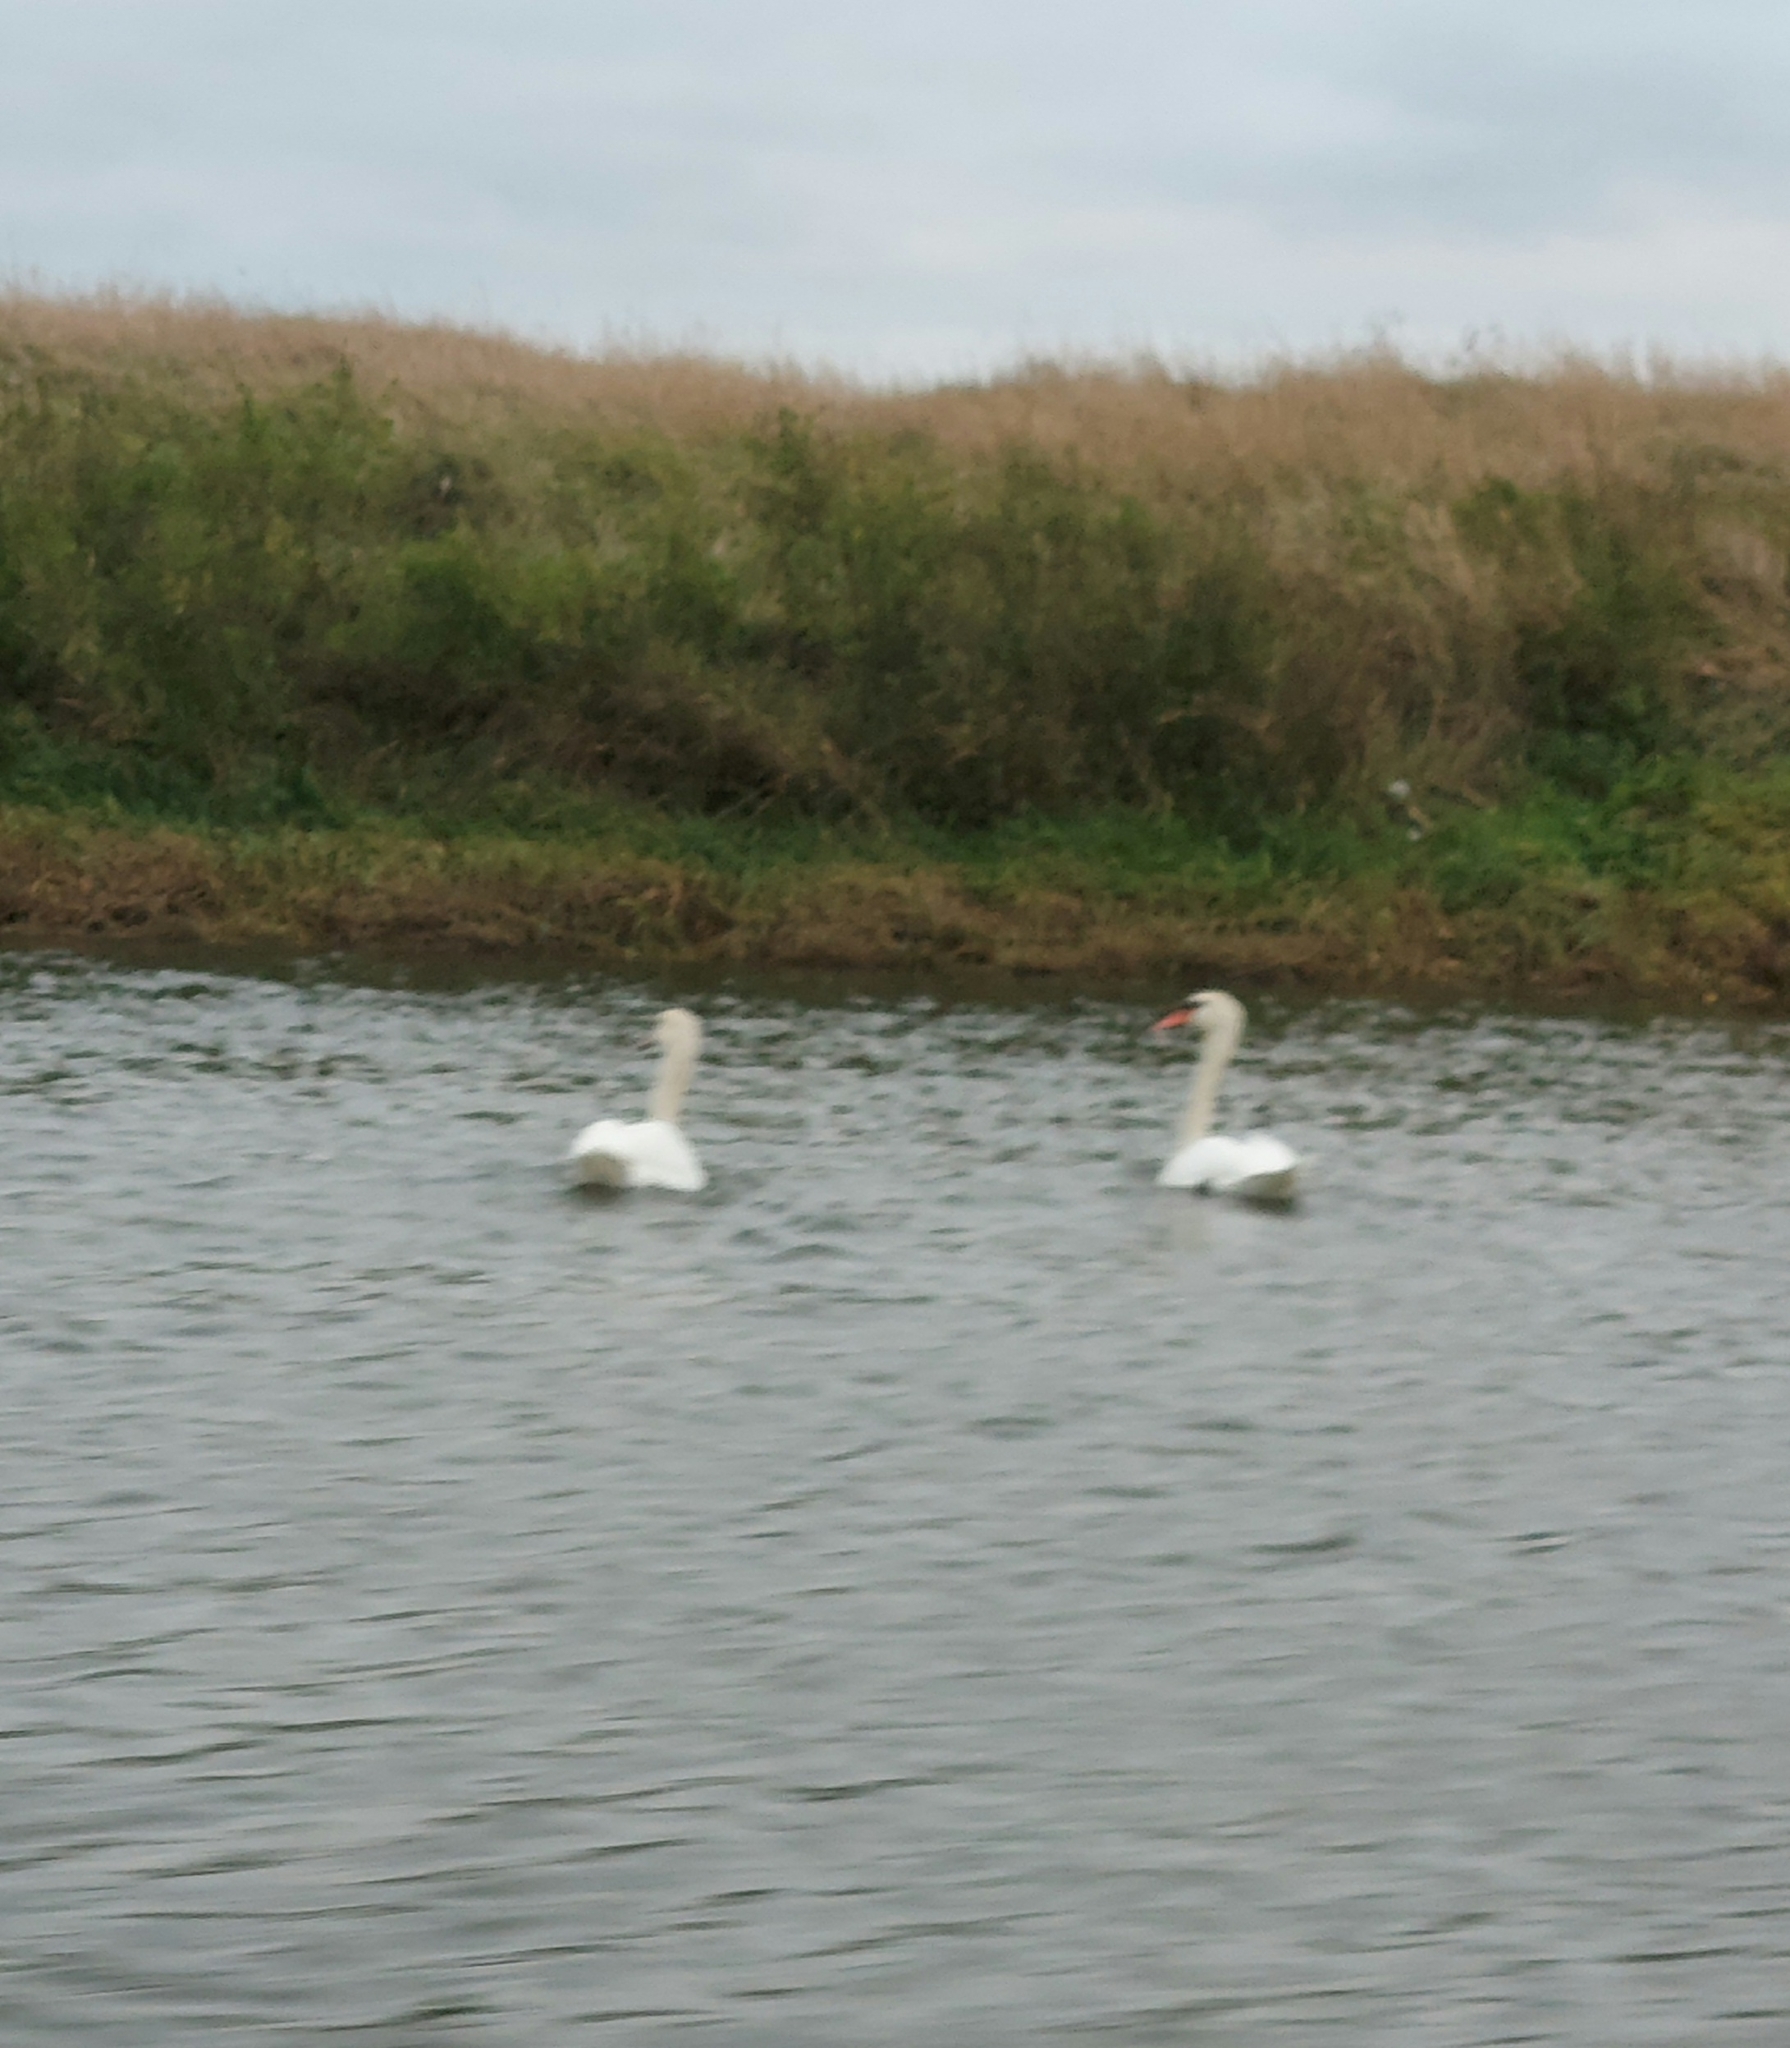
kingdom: Animalia
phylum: Chordata
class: Aves
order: Anseriformes
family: Anatidae
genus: Cygnus
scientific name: Cygnus olor
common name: Mute swan
